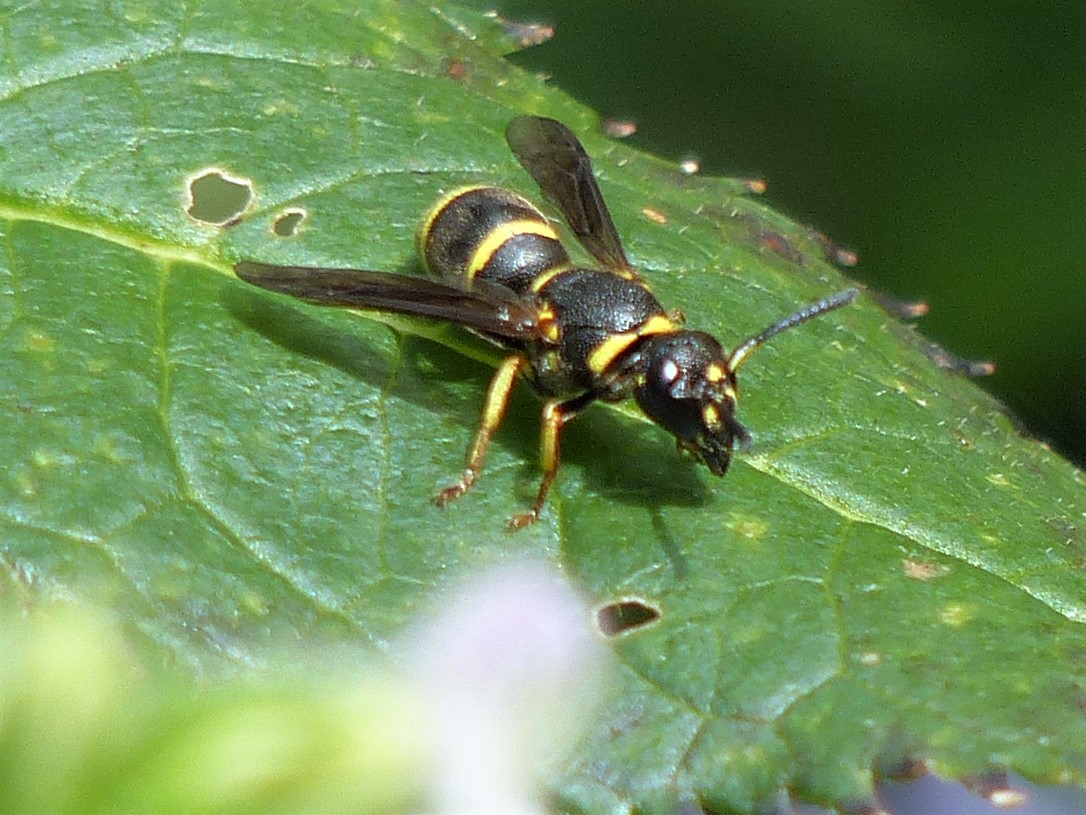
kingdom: Animalia
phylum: Arthropoda
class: Insecta
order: Hymenoptera
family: Eumenidae
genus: Euodynerus
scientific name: Euodynerus foraminatus
